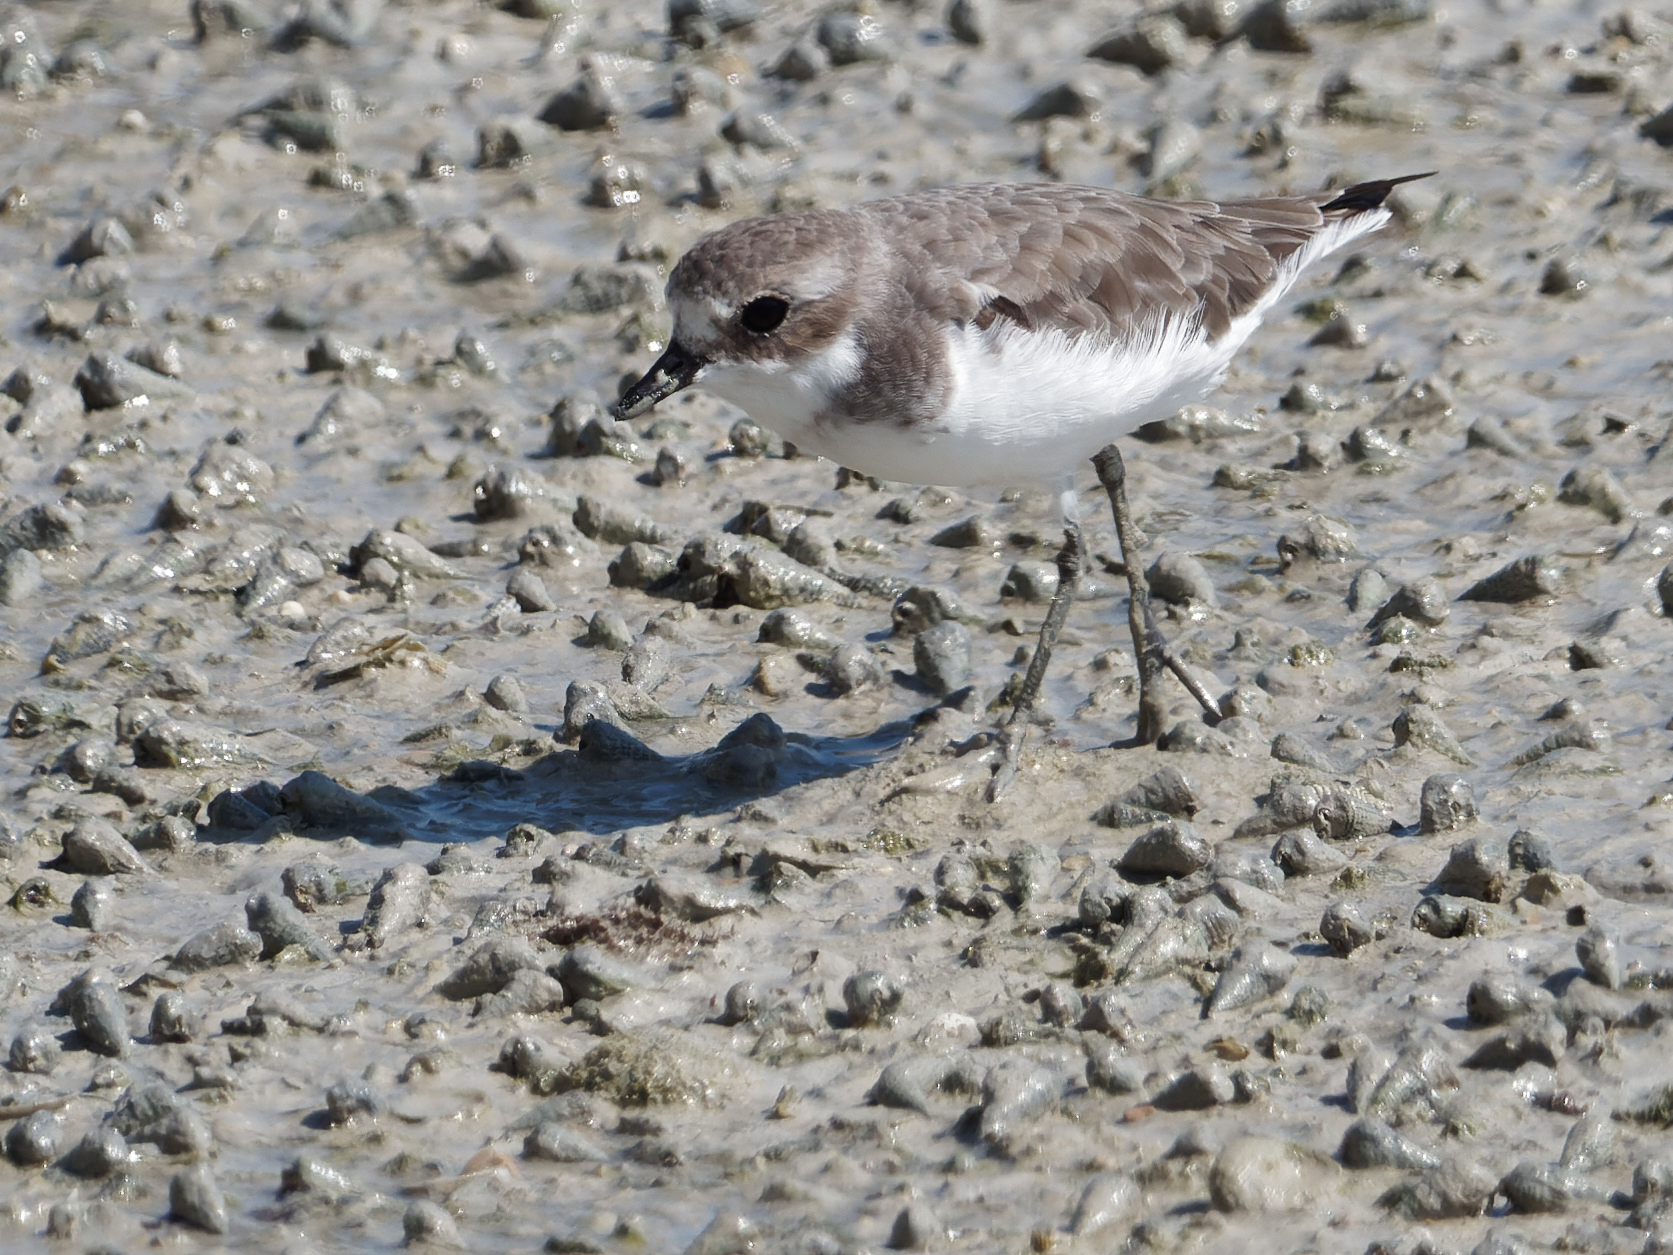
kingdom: Animalia
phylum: Chordata
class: Aves
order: Charadriiformes
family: Charadriidae
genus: Anarhynchus
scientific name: Anarhynchus
